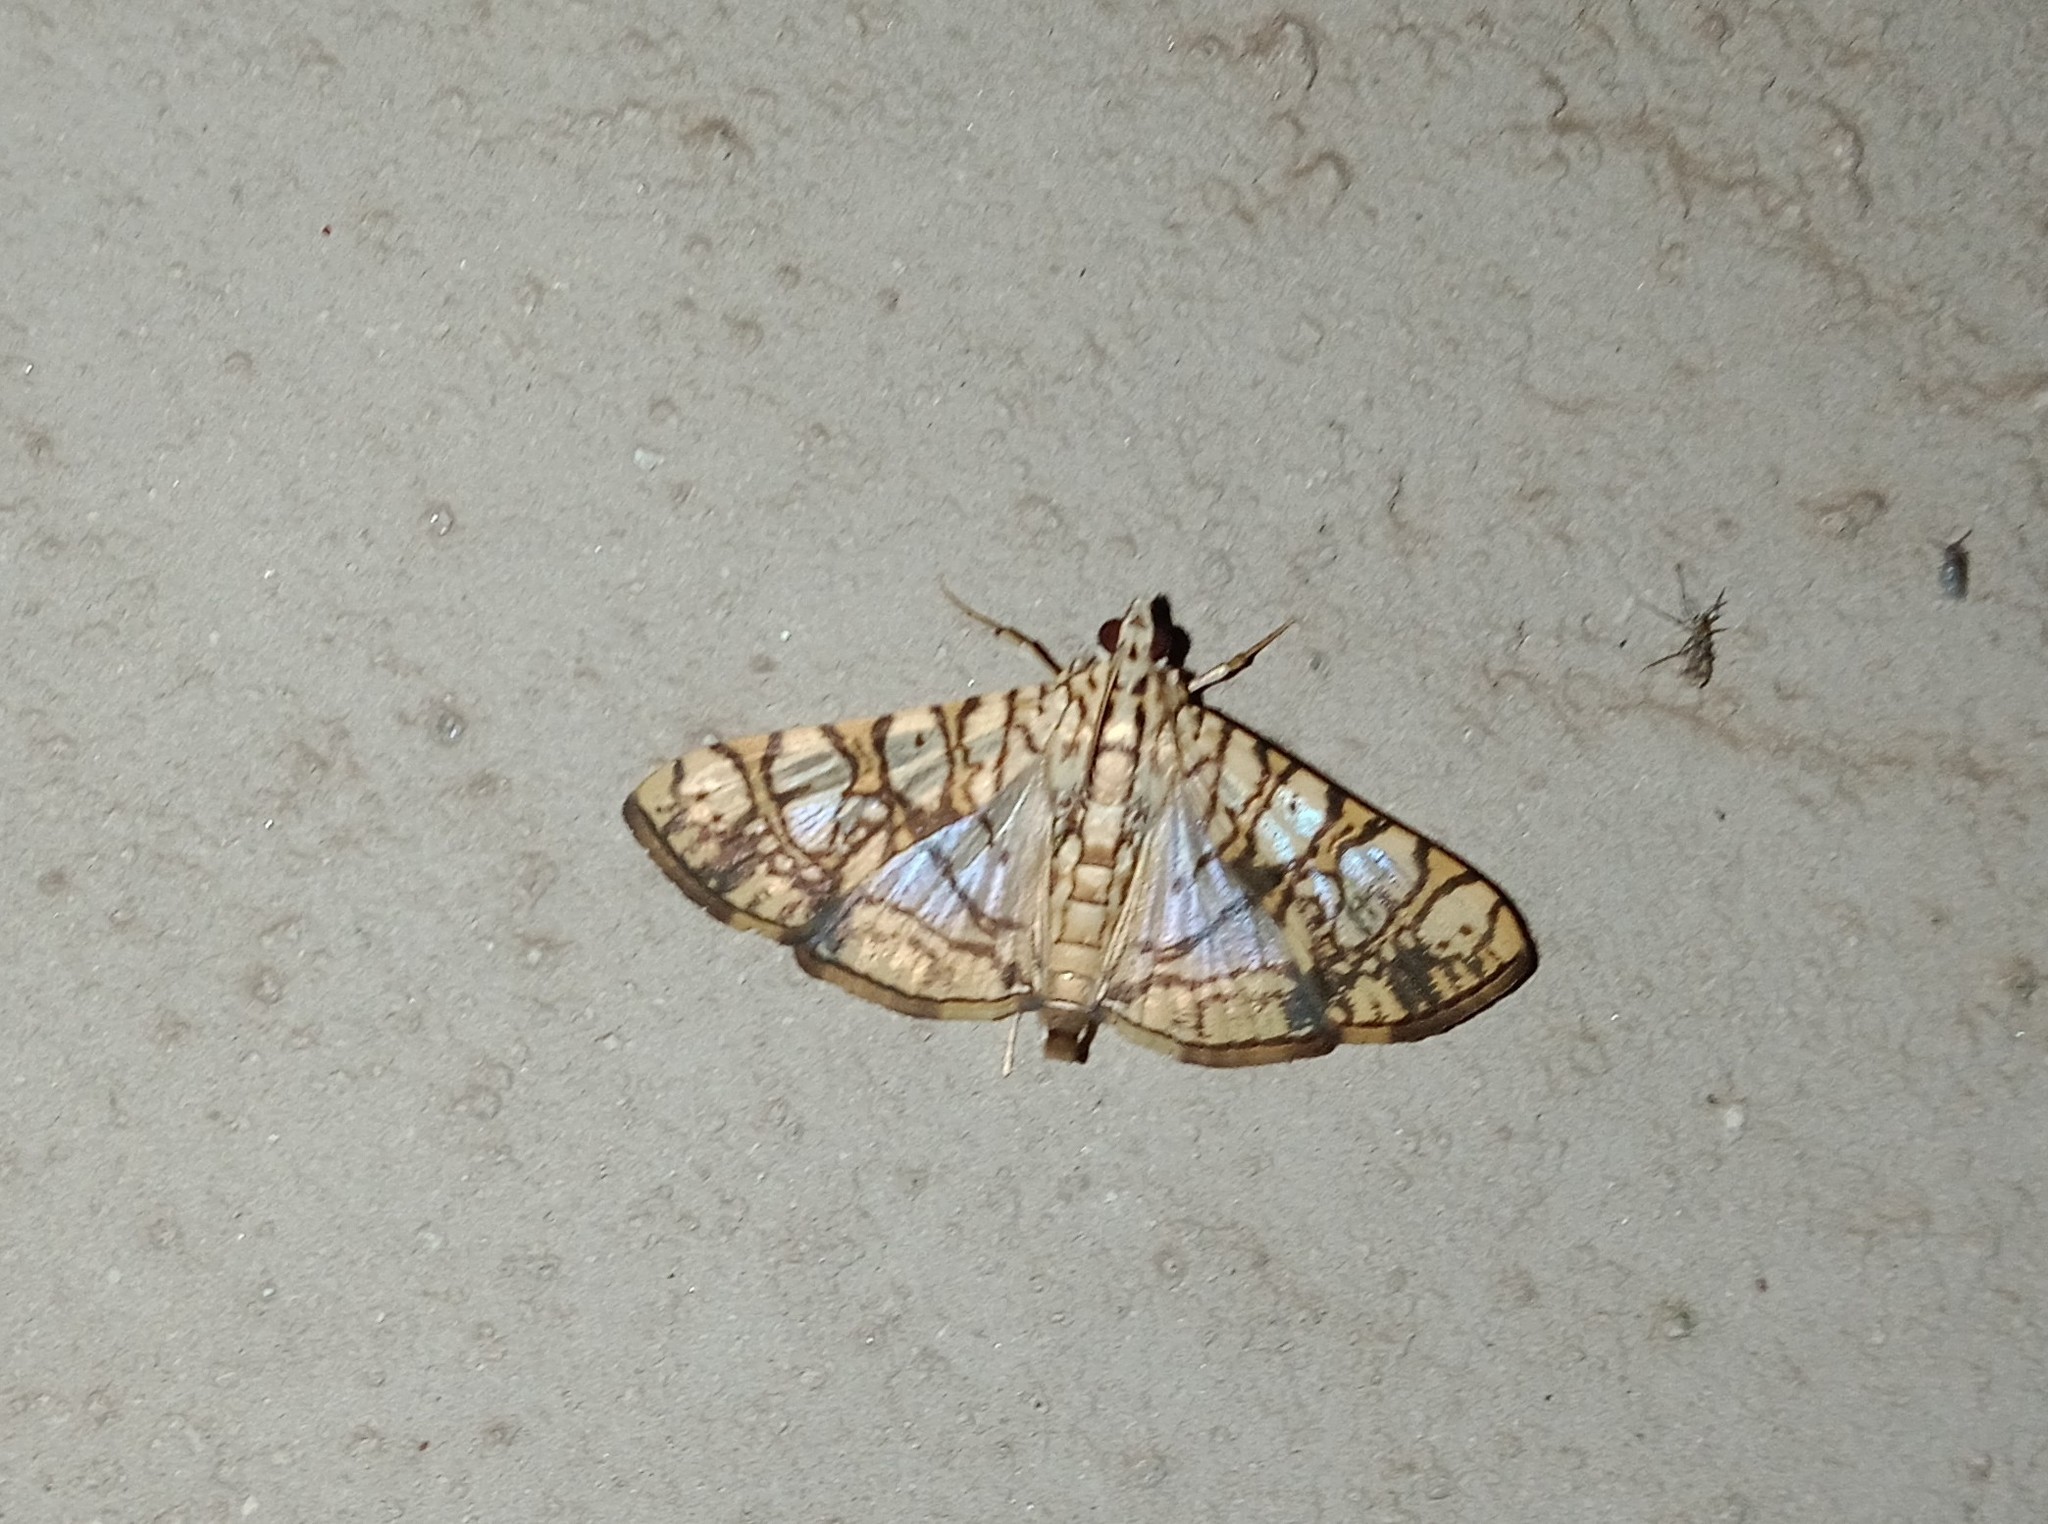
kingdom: Animalia
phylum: Arthropoda
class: Insecta
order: Lepidoptera
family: Crambidae
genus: Glyphodes
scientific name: Glyphodes caesalis
